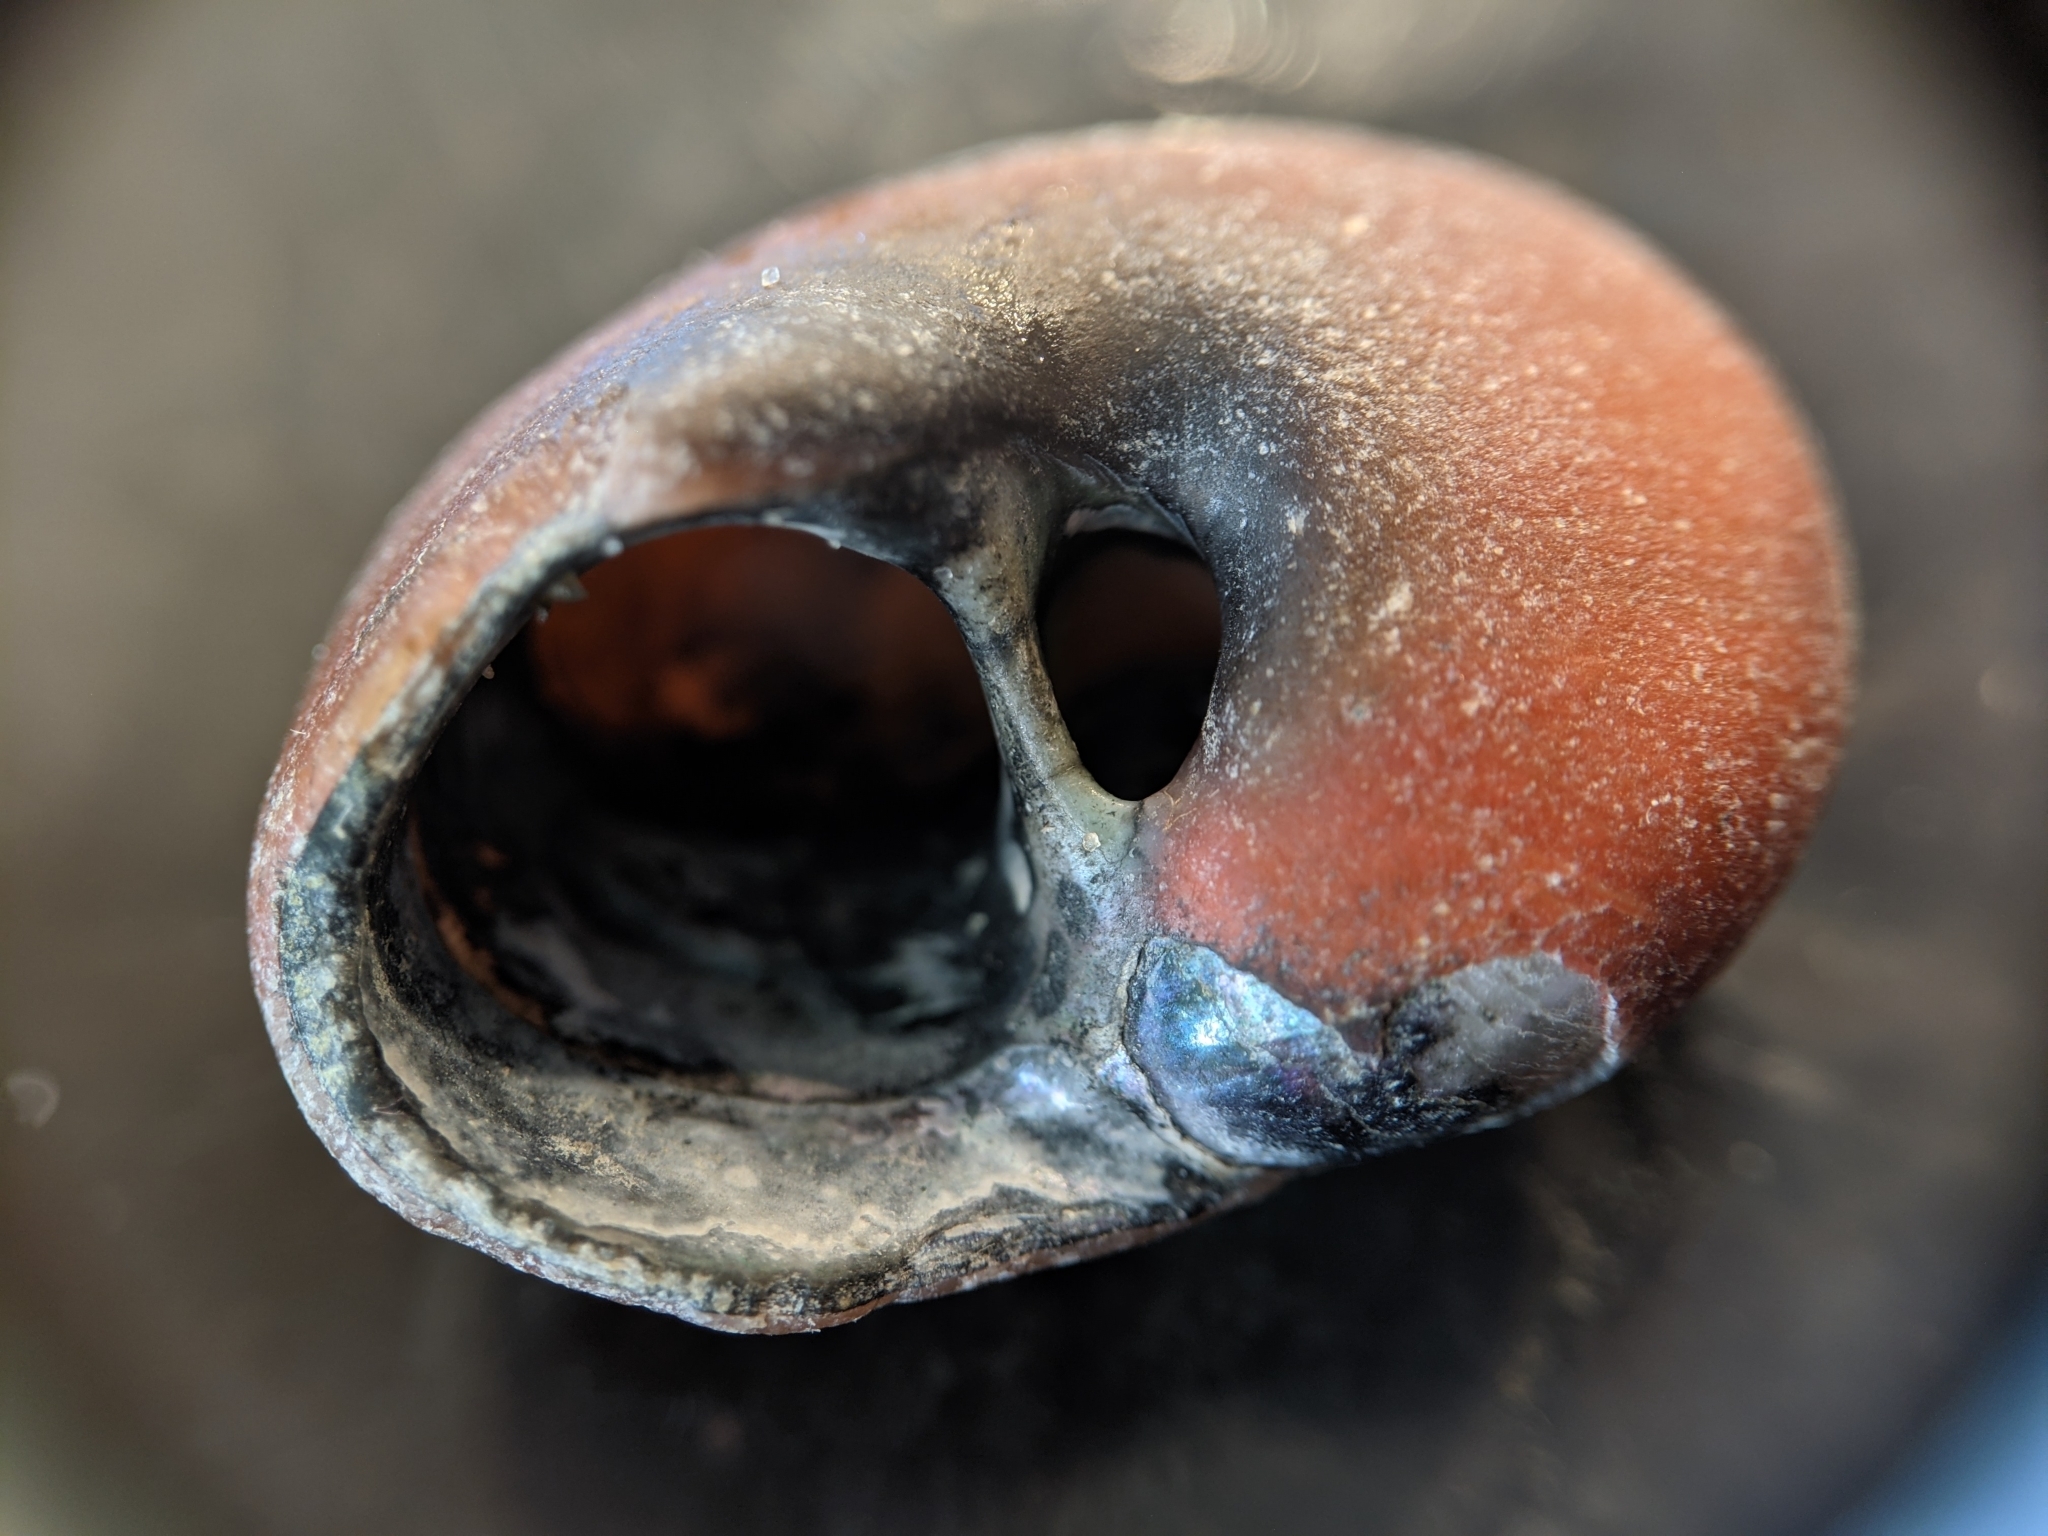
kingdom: Animalia
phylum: Mollusca
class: Gastropoda
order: Trochida
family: Tegulidae
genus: Norrisia
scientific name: Norrisia norrisii
